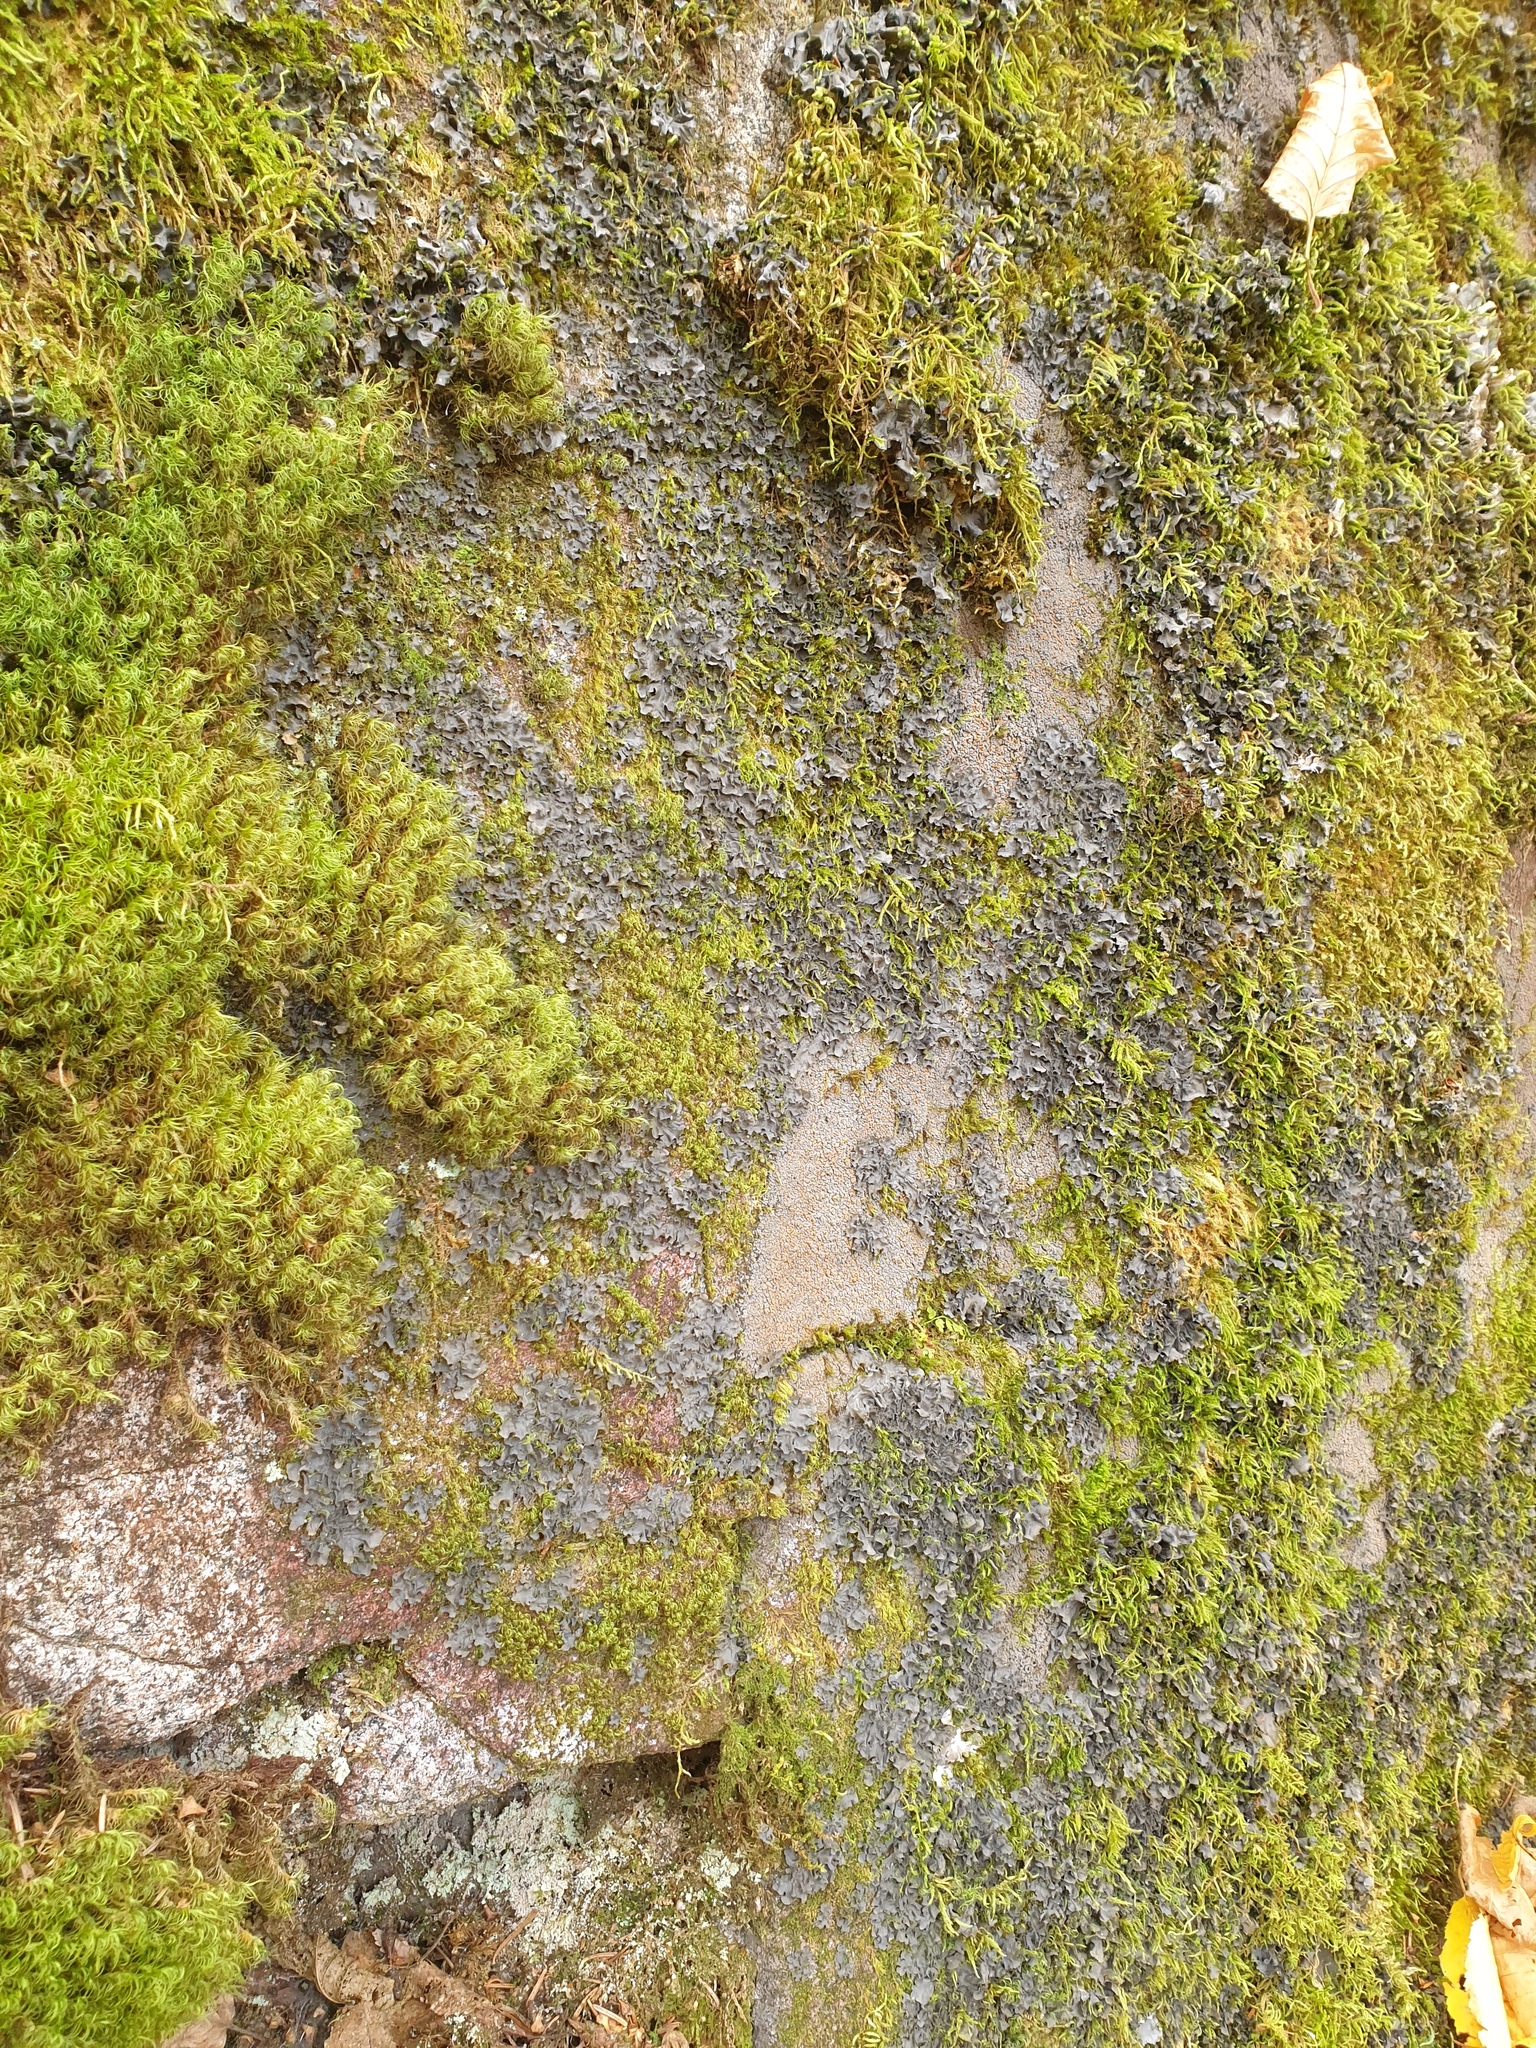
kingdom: Fungi
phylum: Ascomycota
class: Lecanoromycetes
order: Peltigerales
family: Collemataceae
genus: Leptogium
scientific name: Leptogium cyanescens
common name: Blue jellyskin
